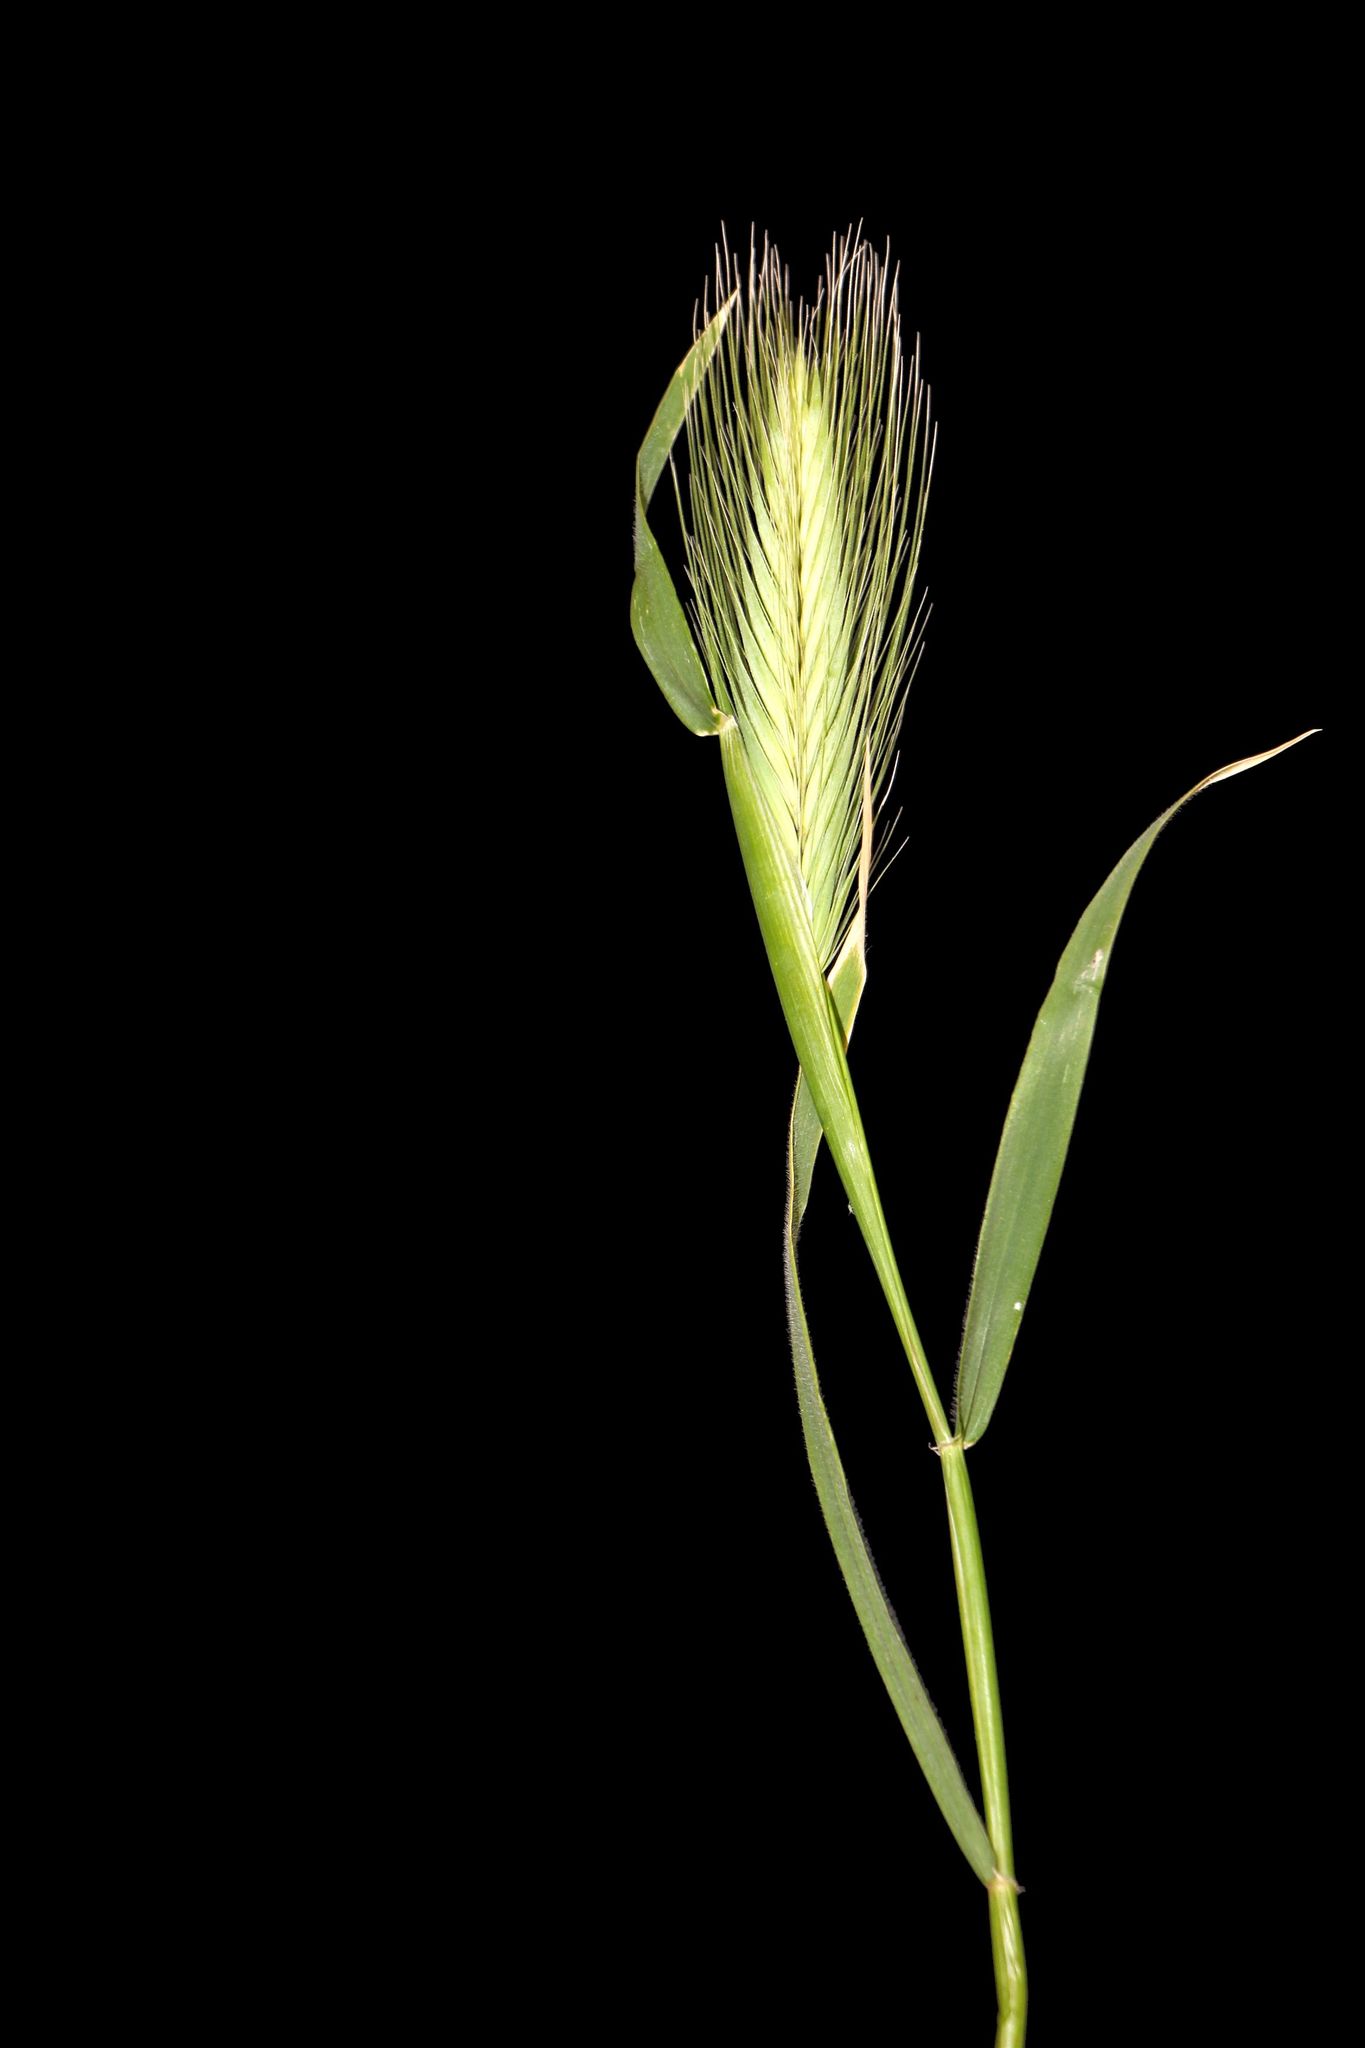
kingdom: Plantae
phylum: Tracheophyta
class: Liliopsida
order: Poales
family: Poaceae
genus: Hordeum
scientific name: Hordeum murinum
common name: Wall barley
